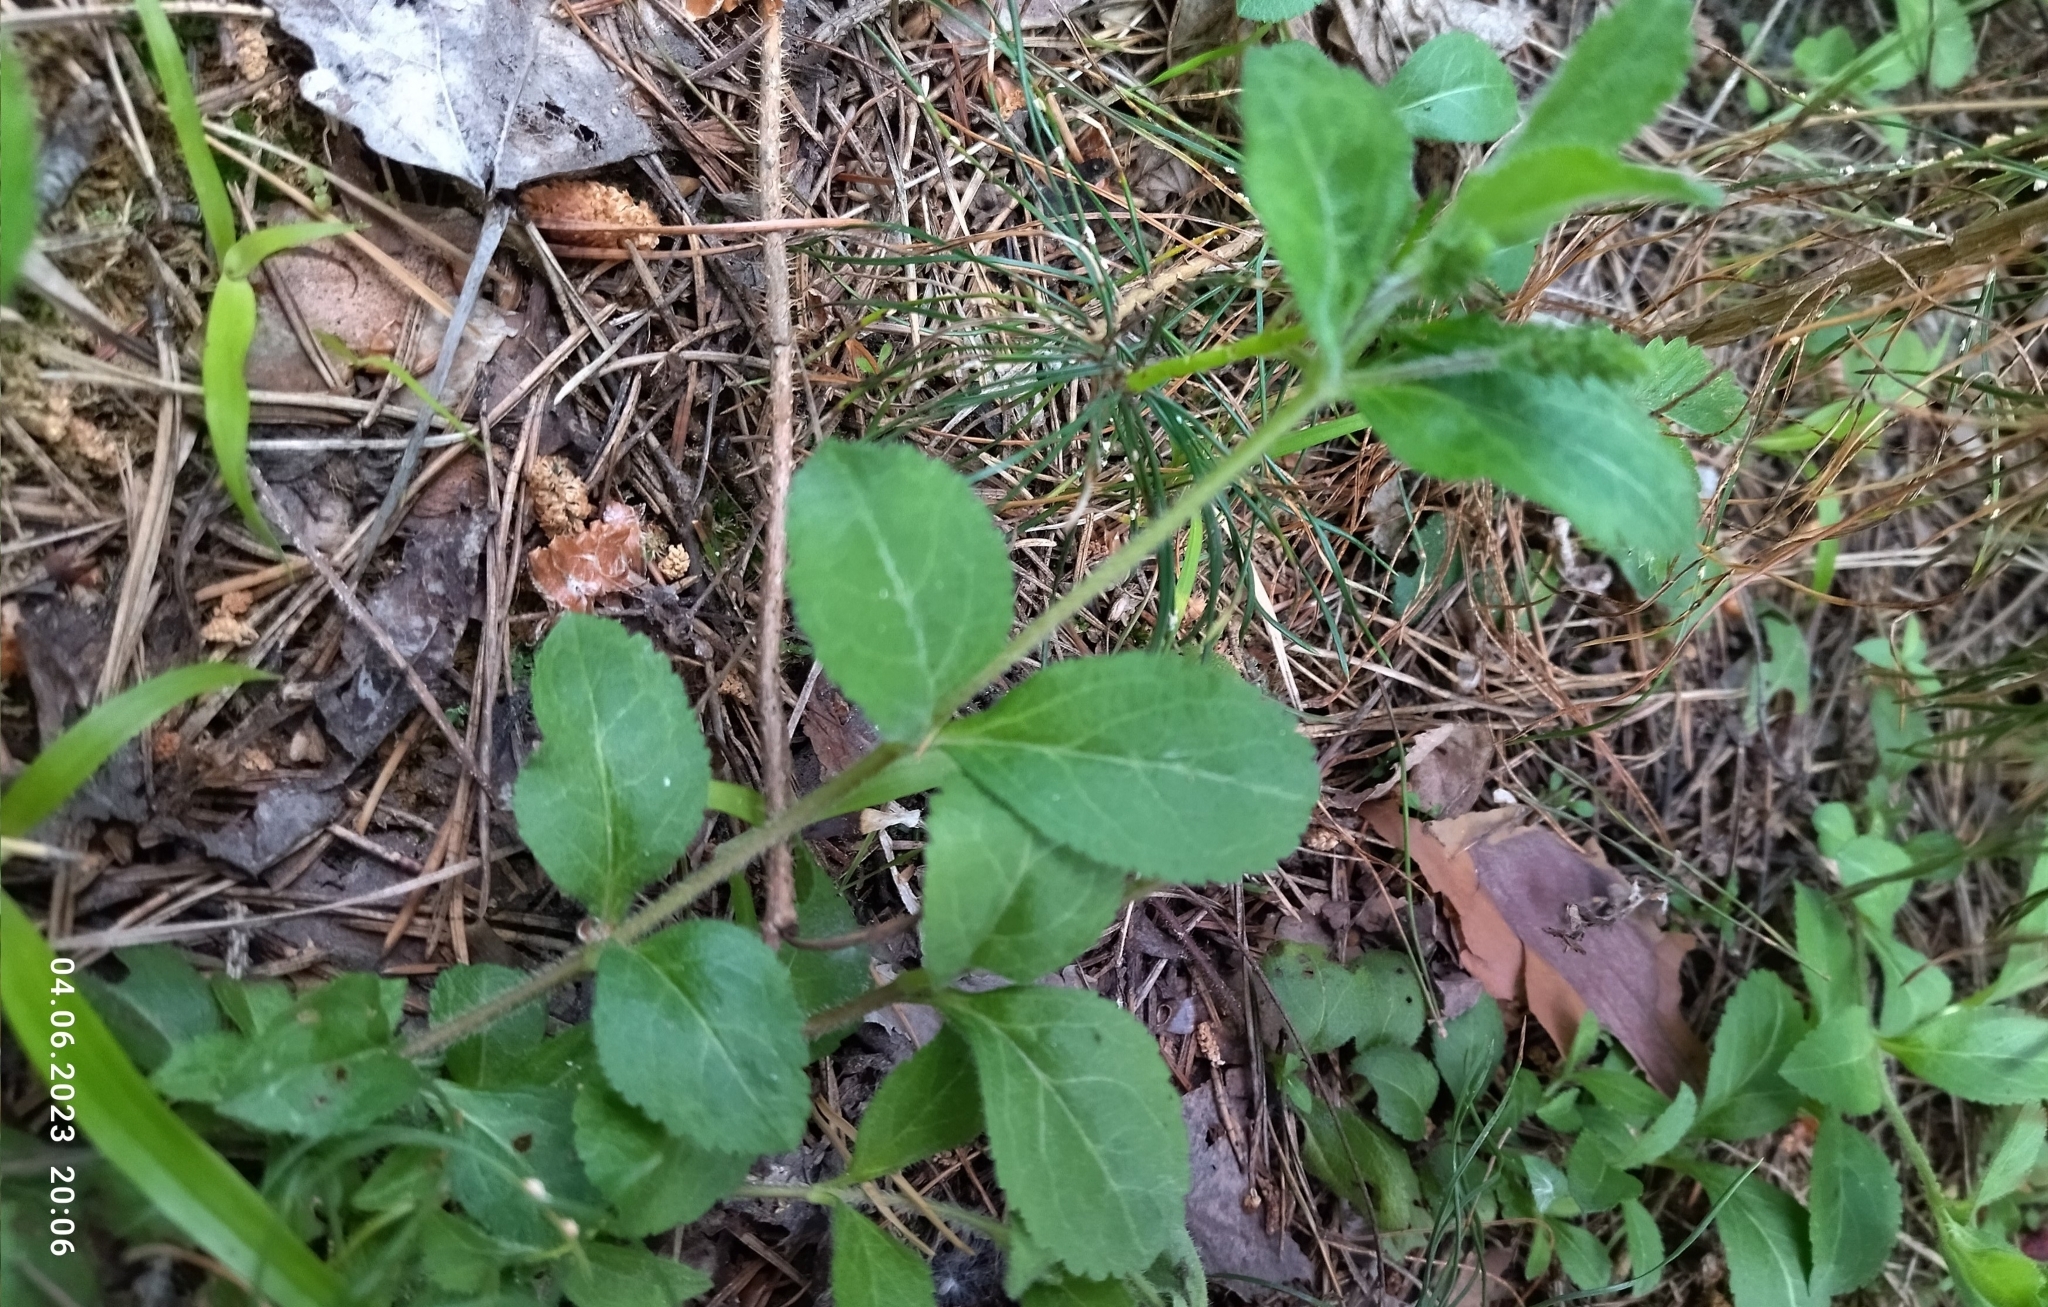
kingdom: Plantae
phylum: Tracheophyta
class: Magnoliopsida
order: Lamiales
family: Plantaginaceae
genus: Veronica
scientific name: Veronica officinalis
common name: Common speedwell
